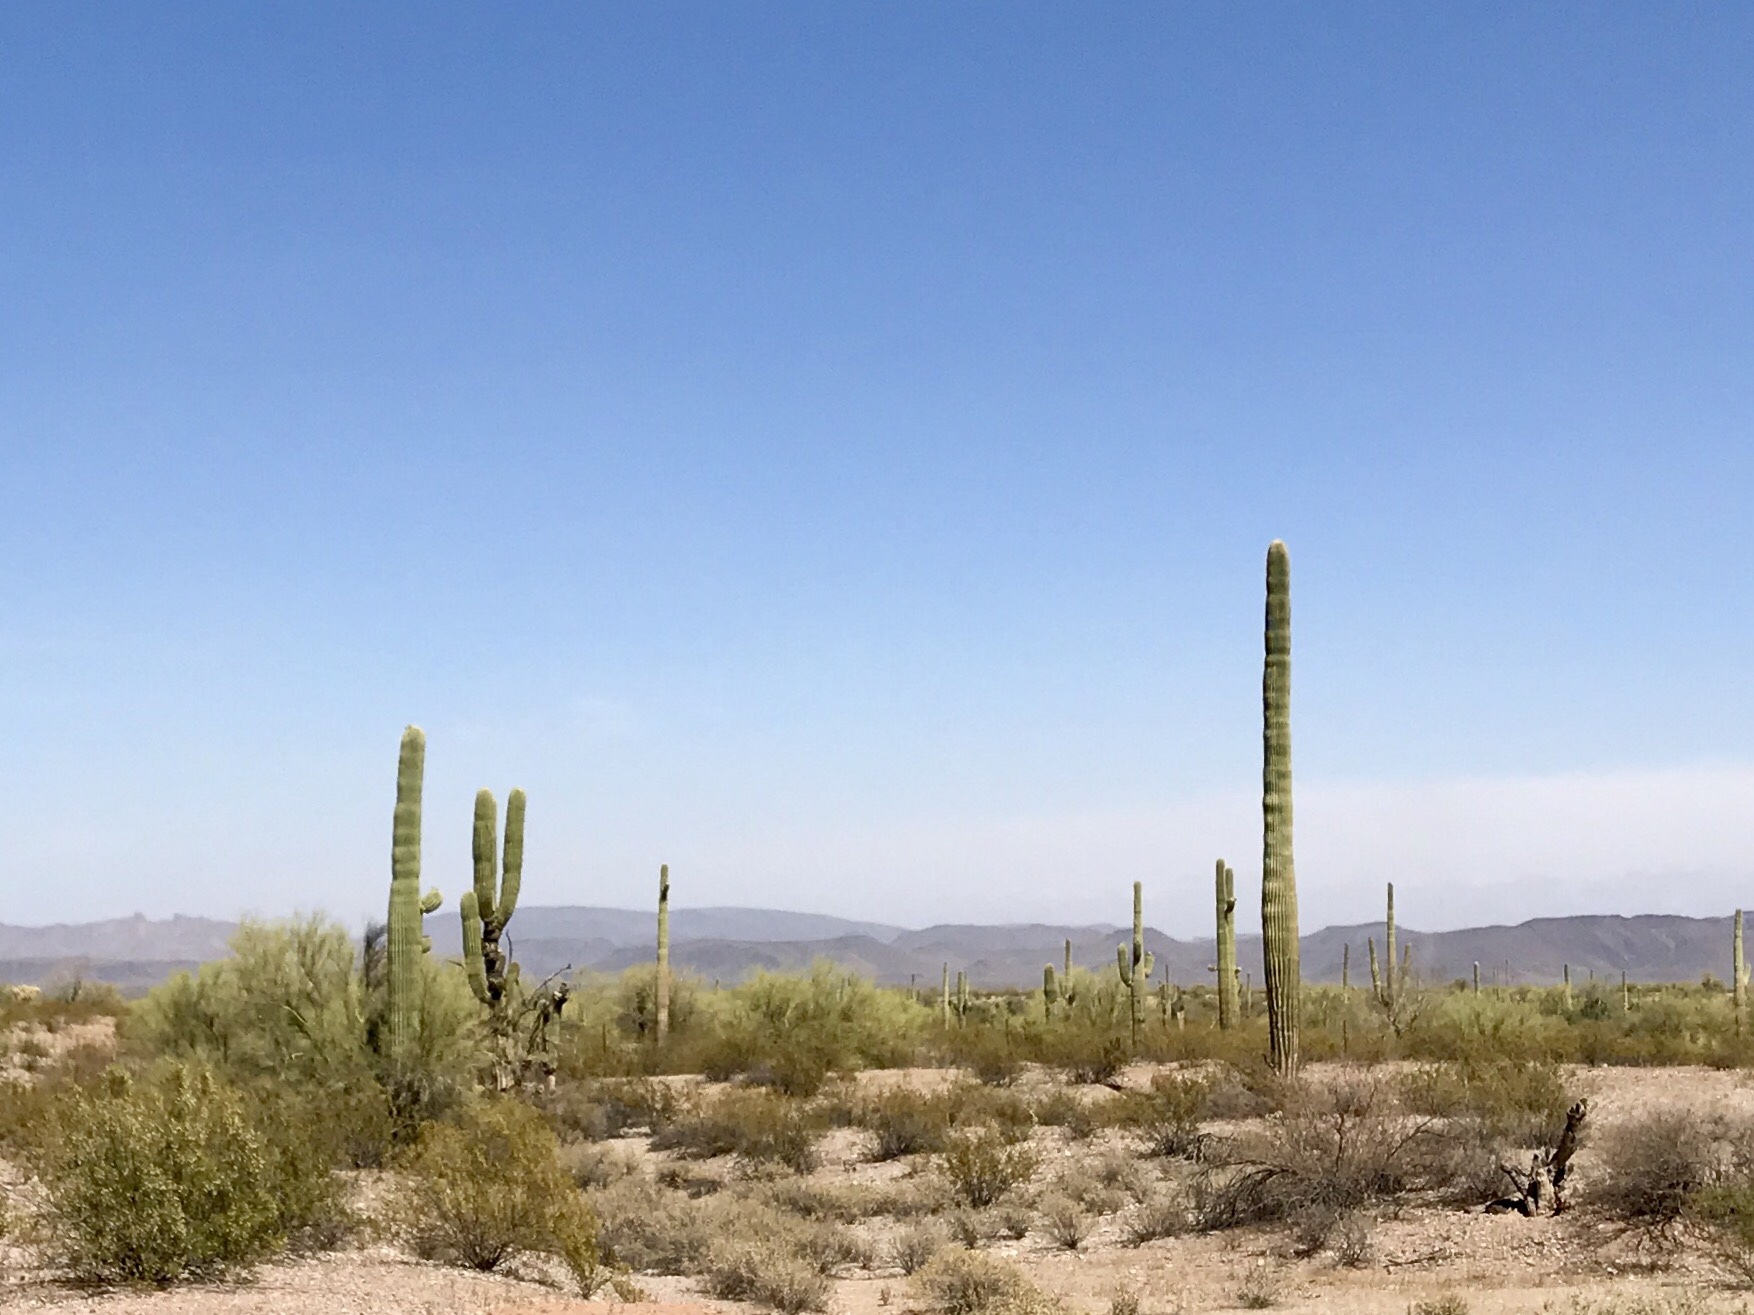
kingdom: Plantae
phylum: Tracheophyta
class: Magnoliopsida
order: Caryophyllales
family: Cactaceae
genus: Carnegiea
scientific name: Carnegiea gigantea
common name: Saguaro
